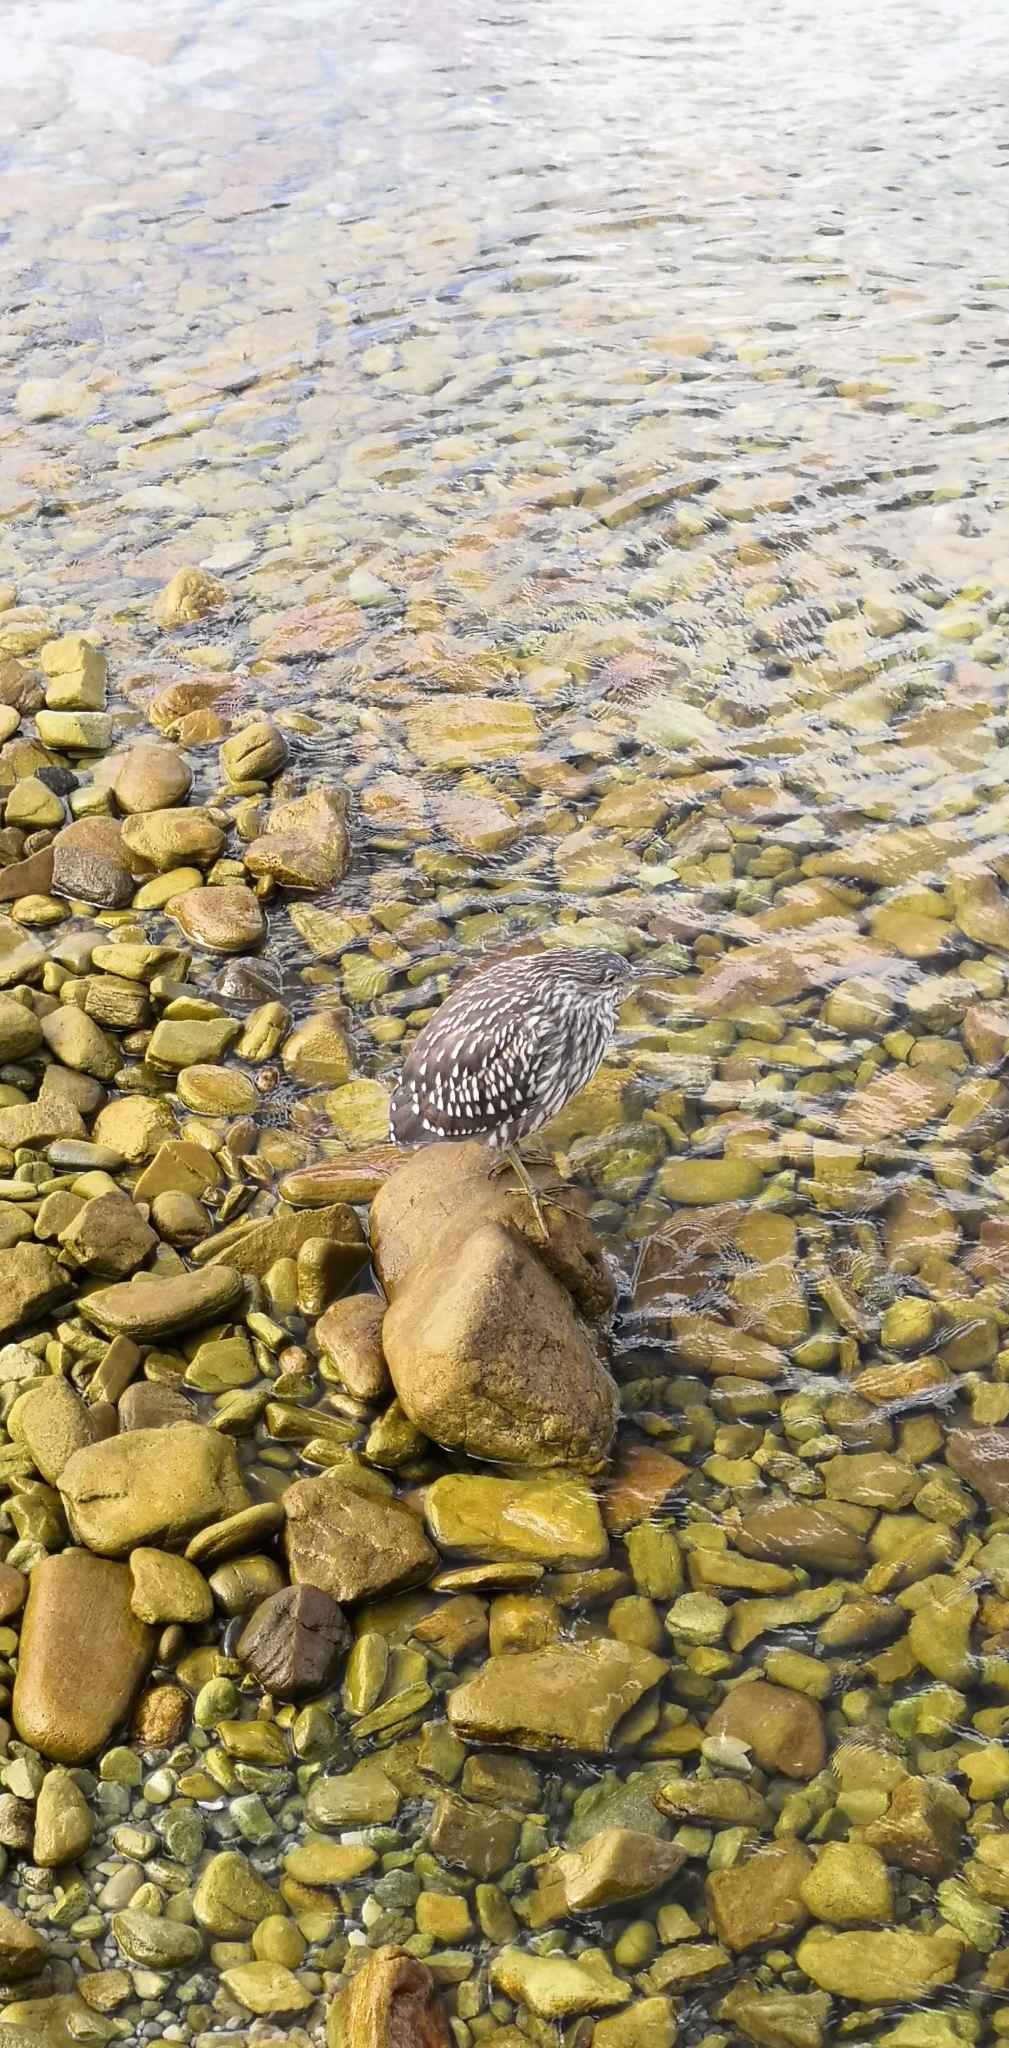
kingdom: Animalia
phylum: Chordata
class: Aves
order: Pelecaniformes
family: Ardeidae
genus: Nycticorax
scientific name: Nycticorax nycticorax
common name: Black-crowned night heron
